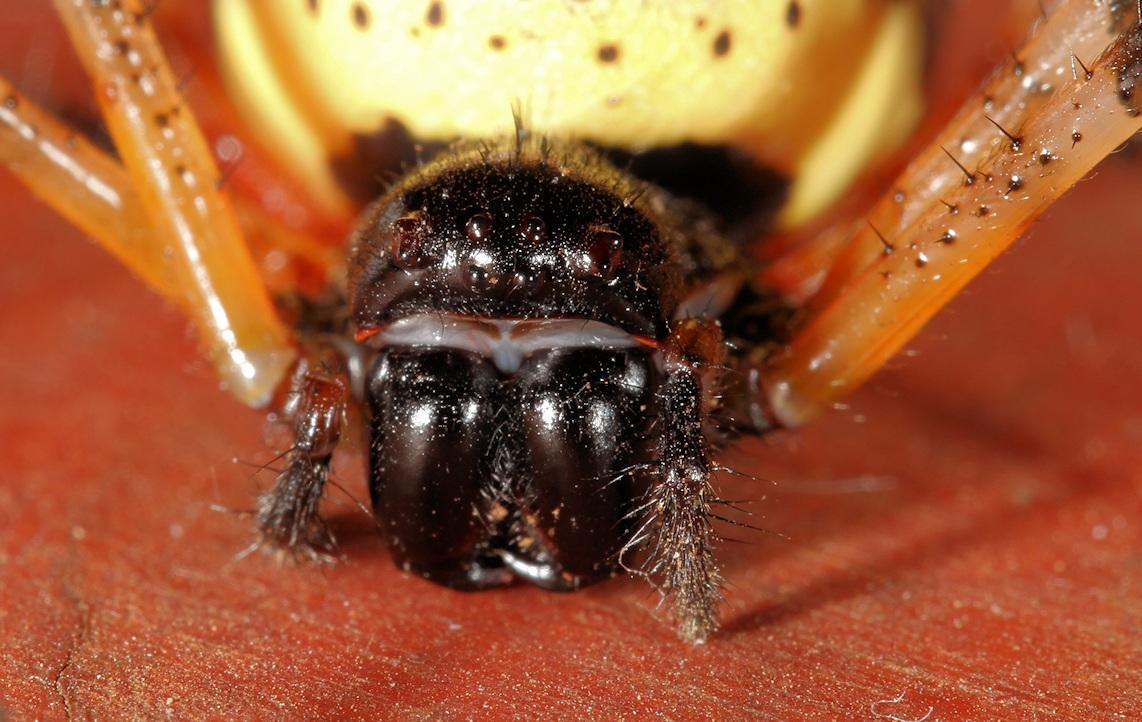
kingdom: Animalia
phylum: Arthropoda
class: Arachnida
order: Araneae
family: Araneidae
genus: Nephilingis
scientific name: Nephilingis cruentata
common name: African hermit spider
